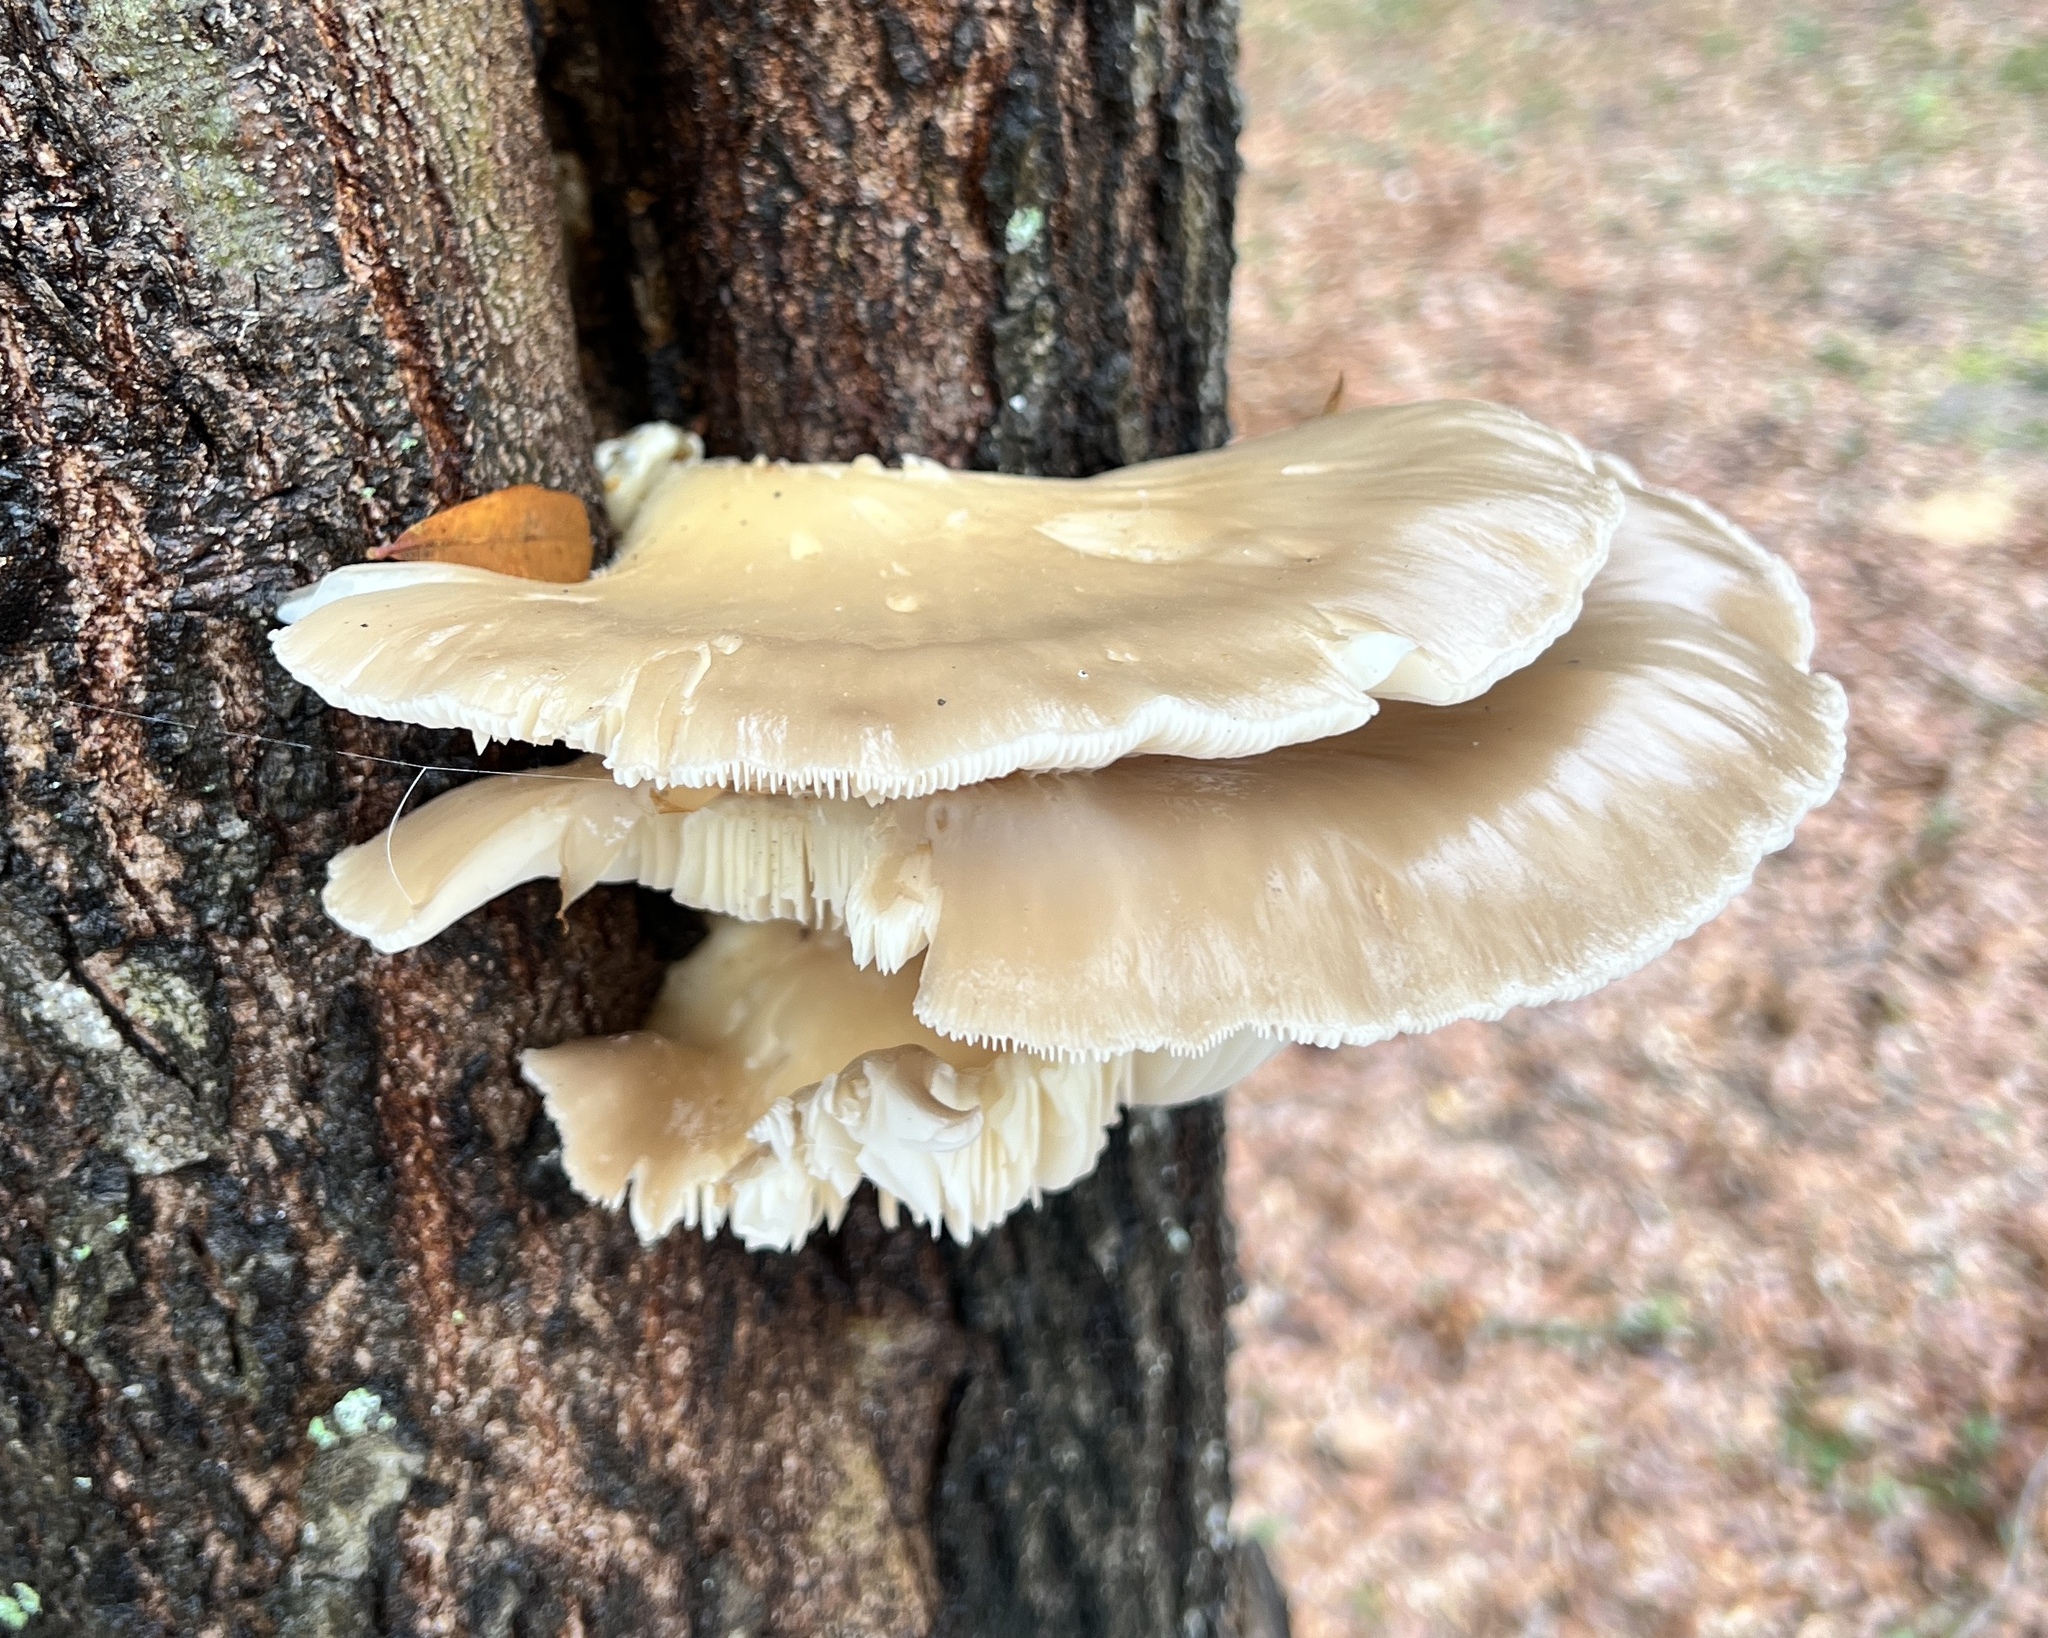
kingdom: Fungi
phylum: Basidiomycota
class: Agaricomycetes
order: Agaricales
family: Pleurotaceae
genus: Pleurotus
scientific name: Pleurotus ostreatus
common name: Oyster mushroom
